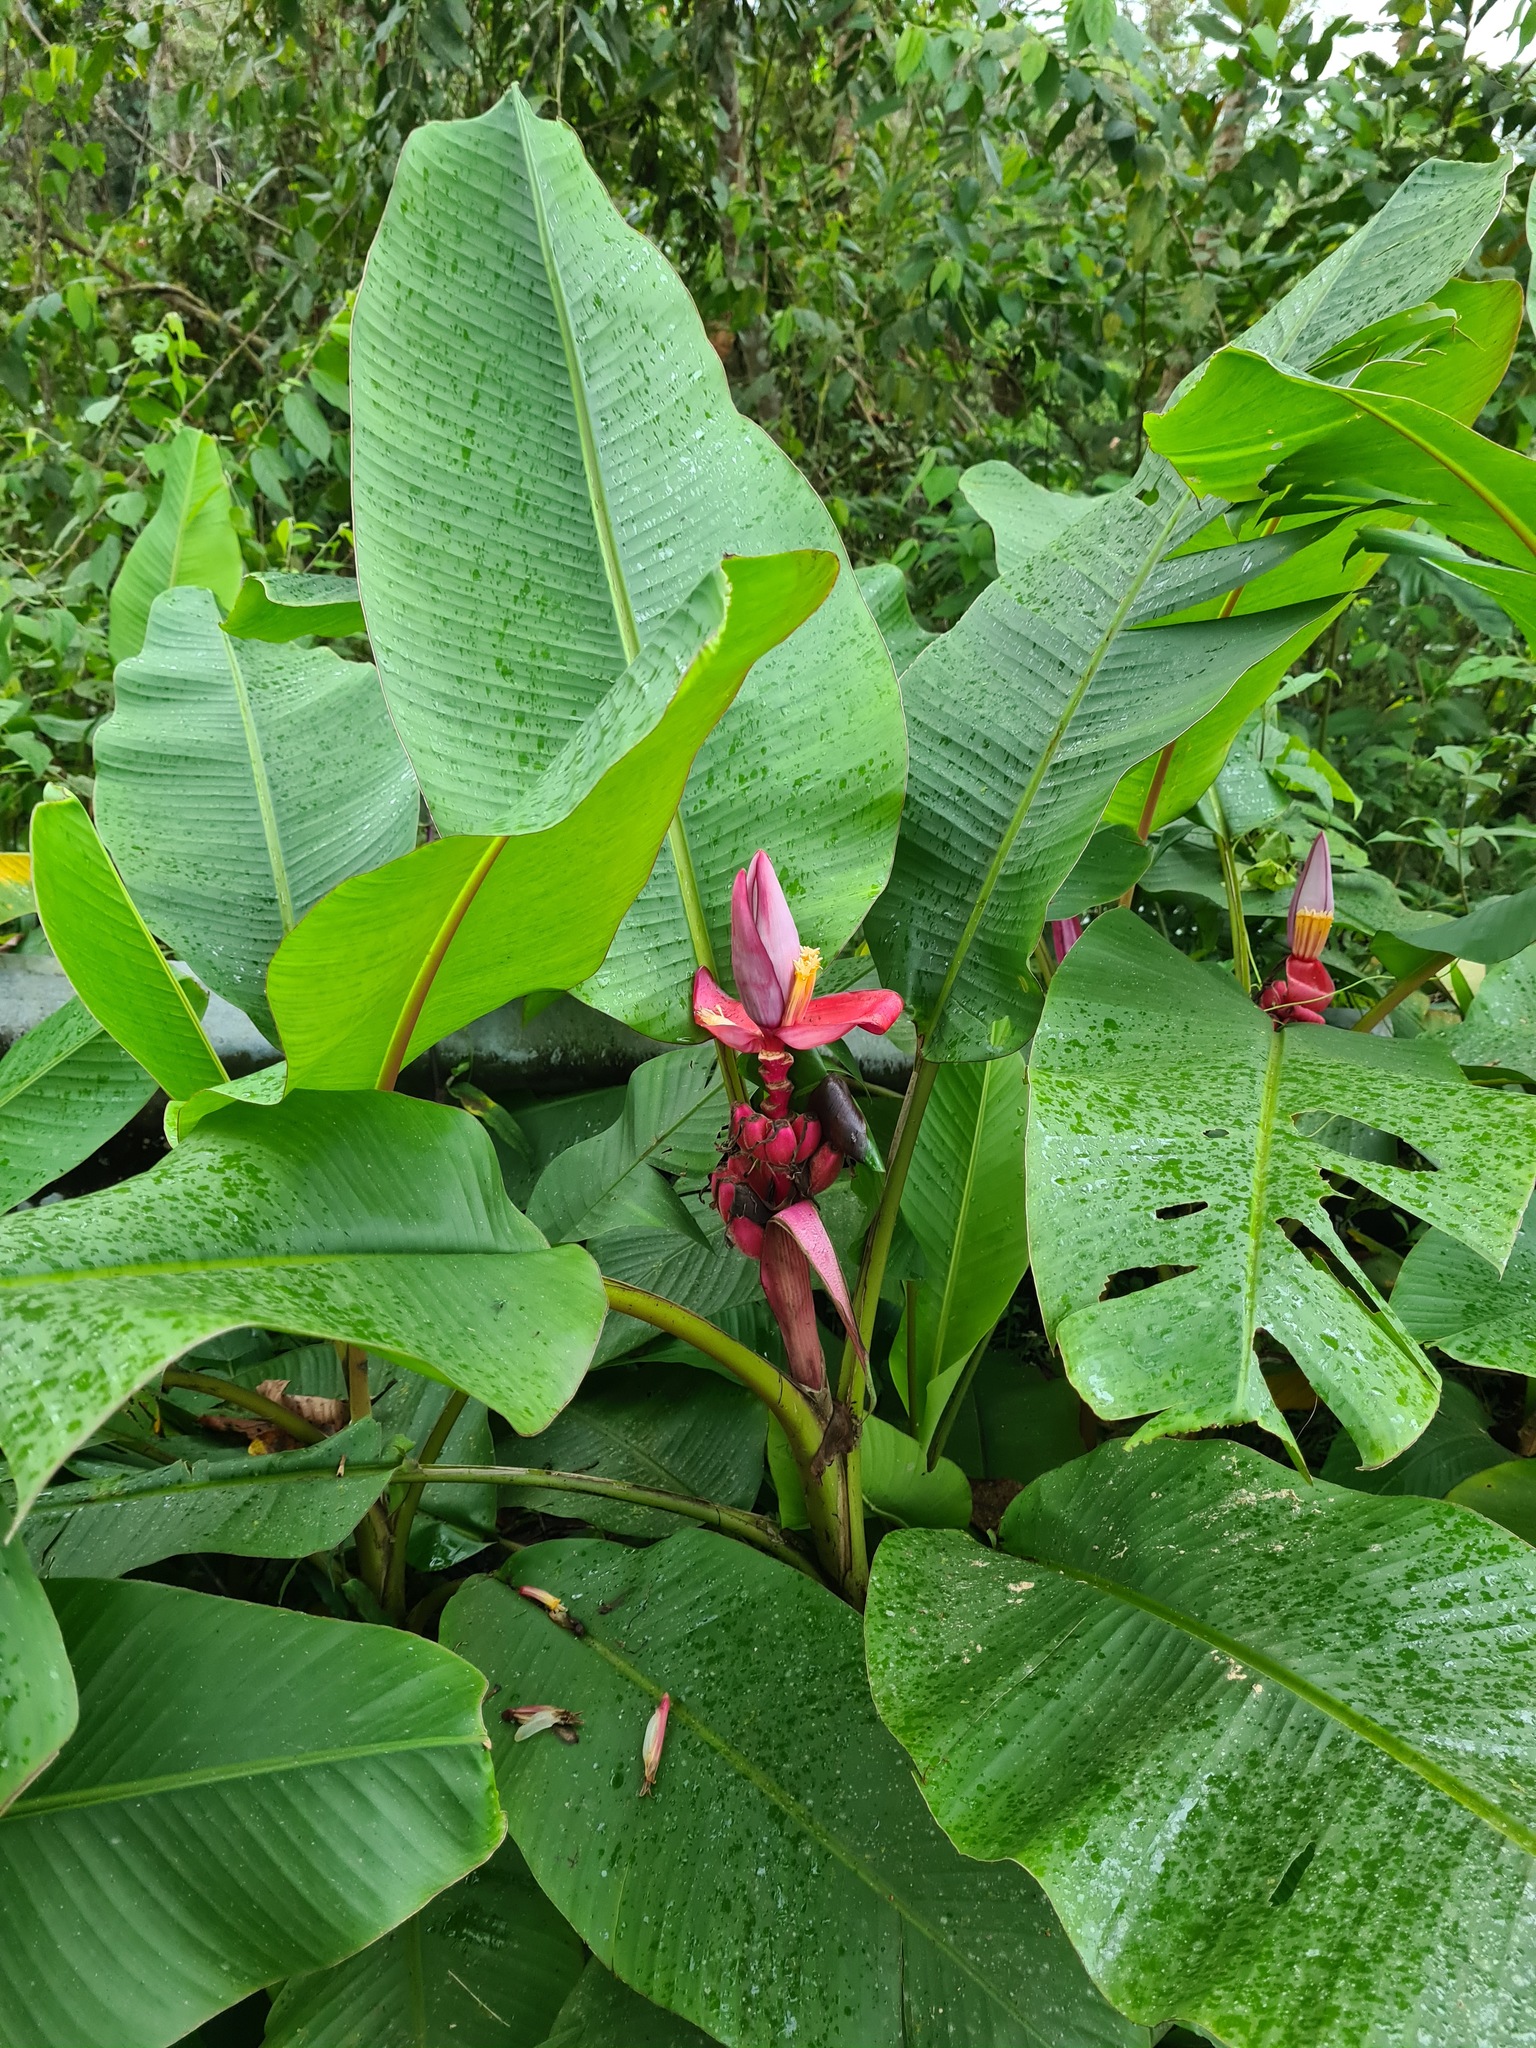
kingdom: Plantae
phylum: Tracheophyta
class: Liliopsida
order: Zingiberales
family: Musaceae
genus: Musa
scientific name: Musa velutina
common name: Pink velvet banana
